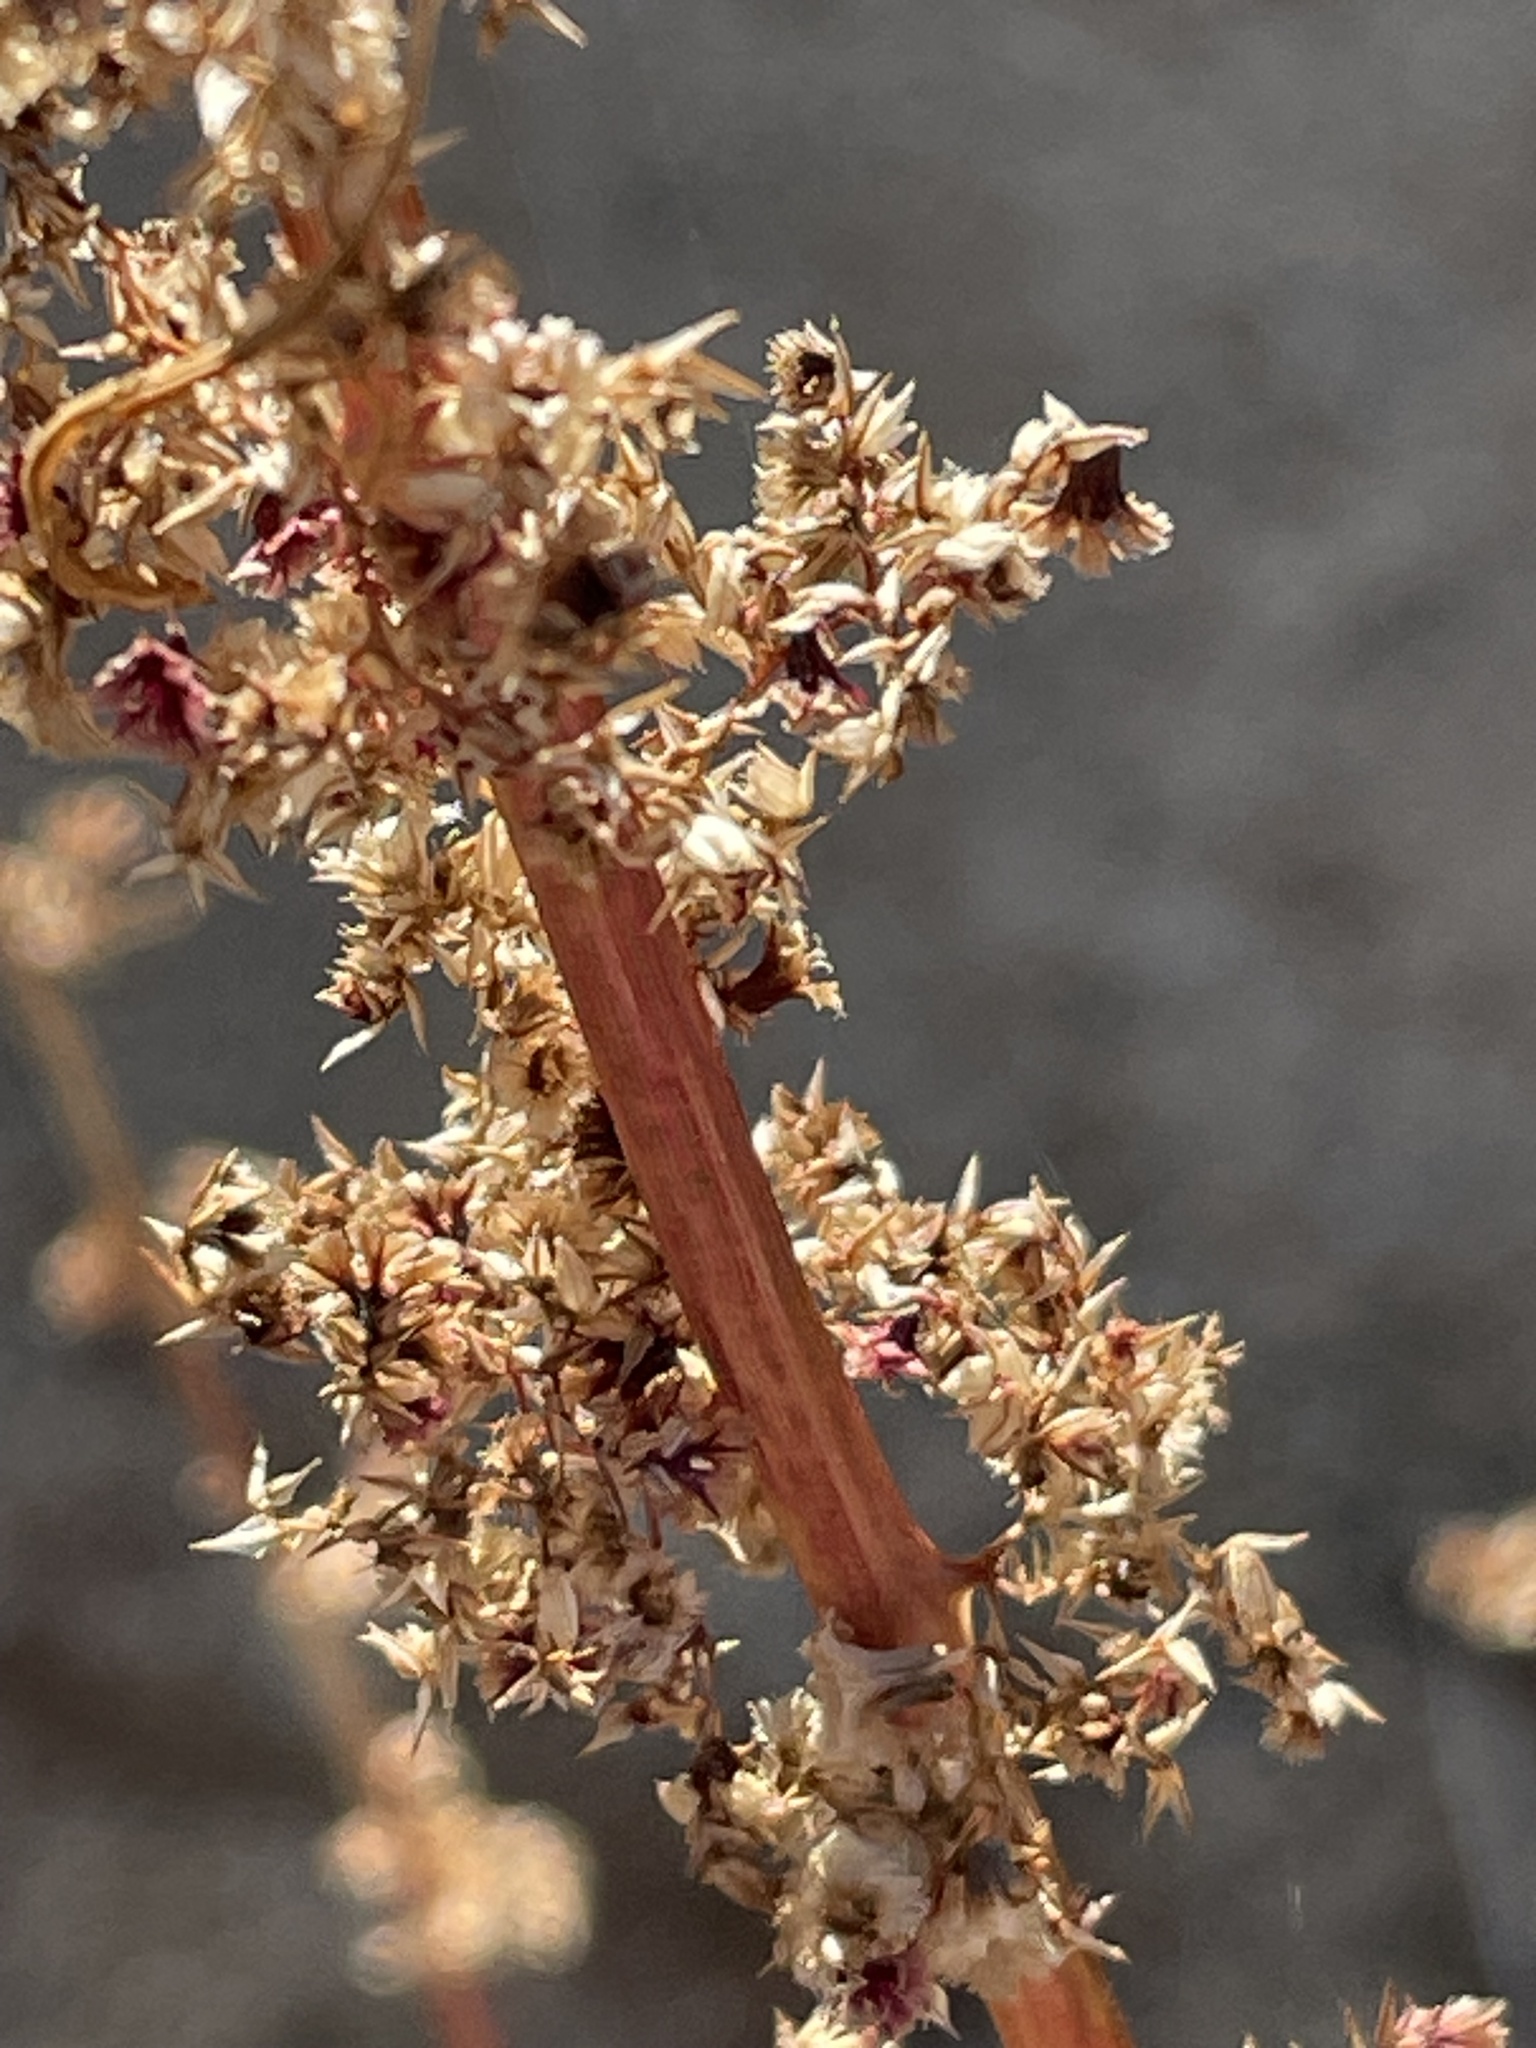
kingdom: Plantae
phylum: Tracheophyta
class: Magnoliopsida
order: Caryophyllales
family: Amaranthaceae
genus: Amaranthus
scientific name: Amaranthus fimbriatus
